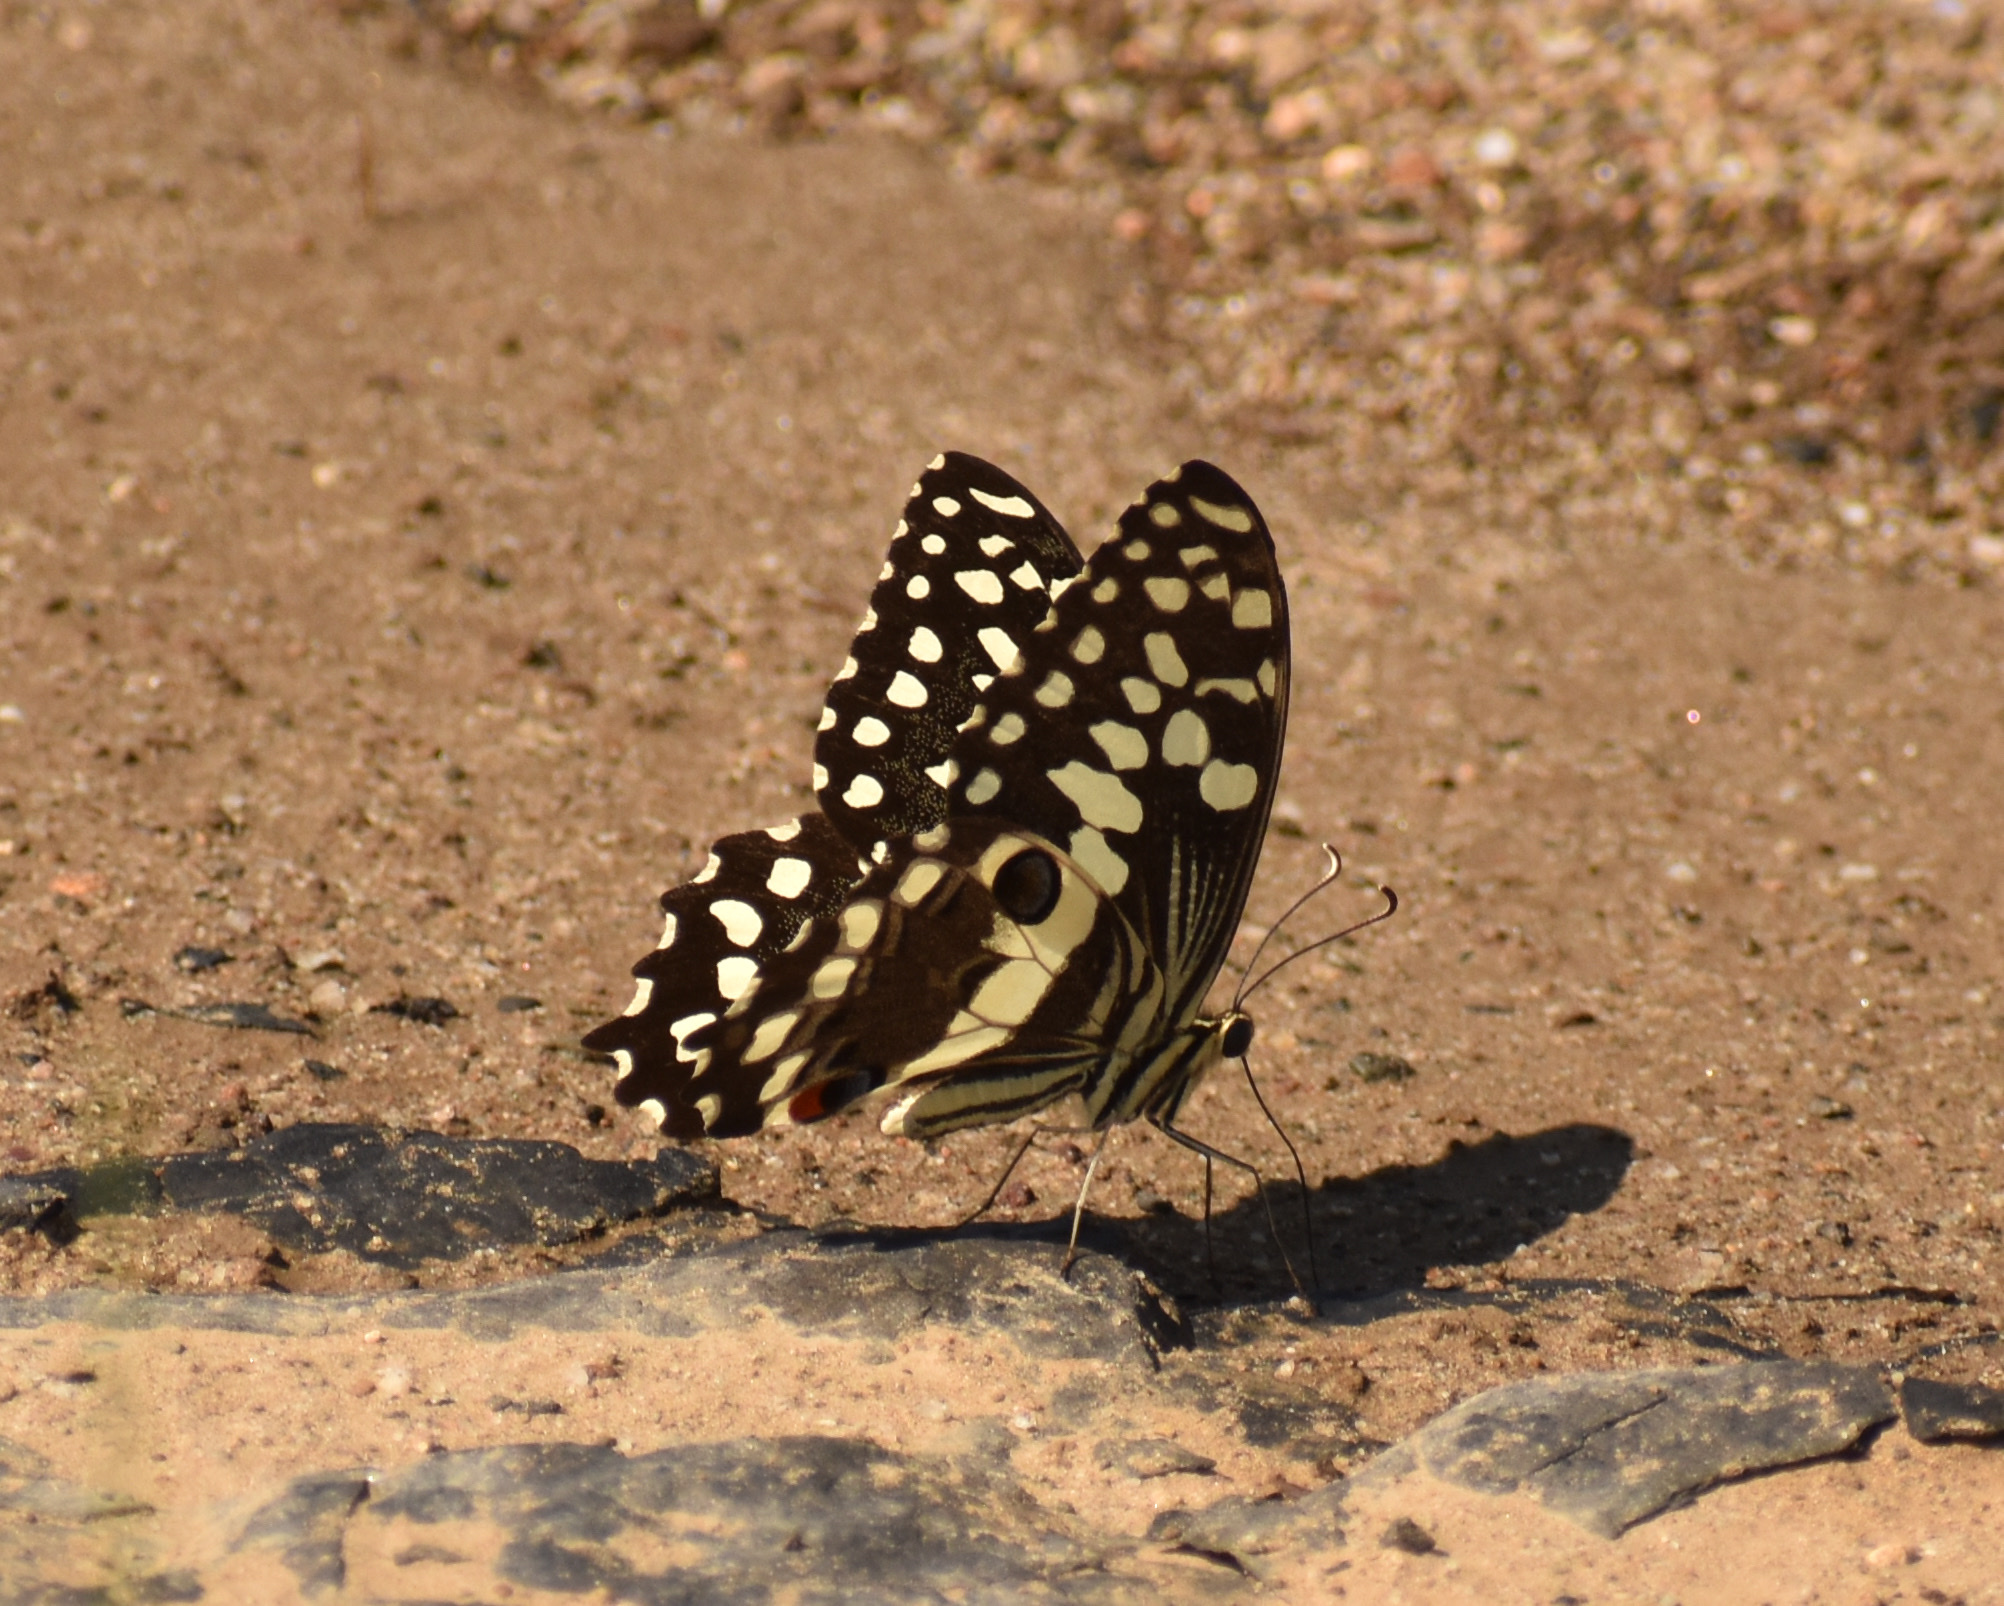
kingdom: Animalia
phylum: Arthropoda
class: Insecta
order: Lepidoptera
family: Papilionidae
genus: Papilio
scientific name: Papilio demodocus
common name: Christmas butterfly
